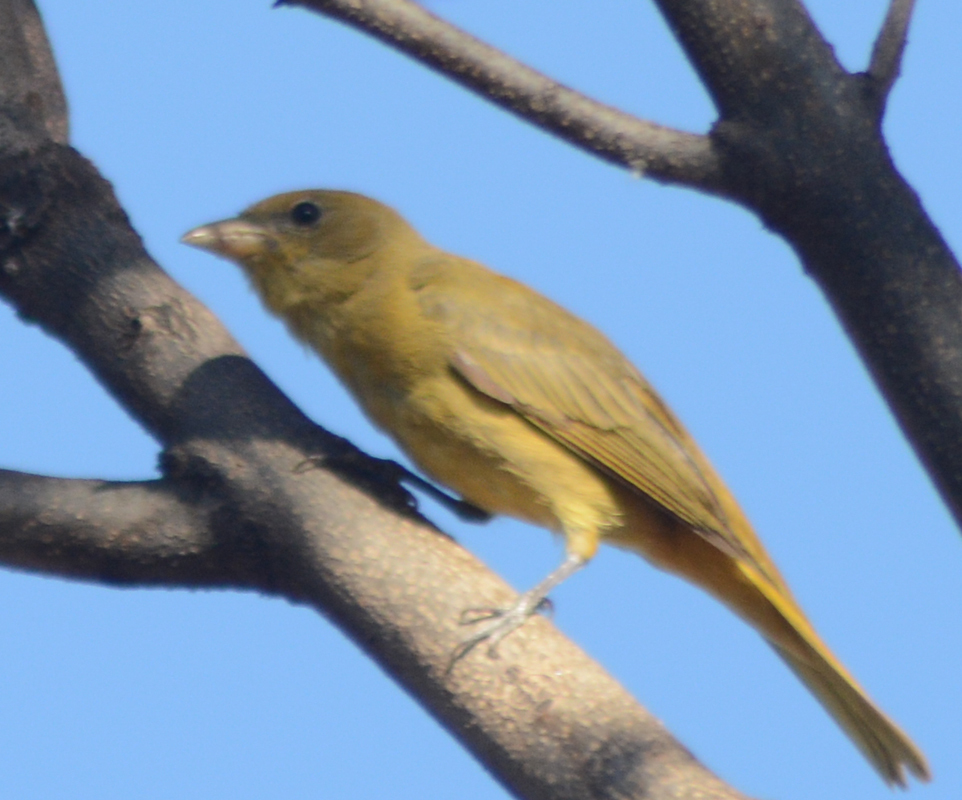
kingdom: Animalia
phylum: Chordata
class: Aves
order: Passeriformes
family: Cardinalidae
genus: Piranga
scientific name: Piranga rubra
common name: Summer tanager
